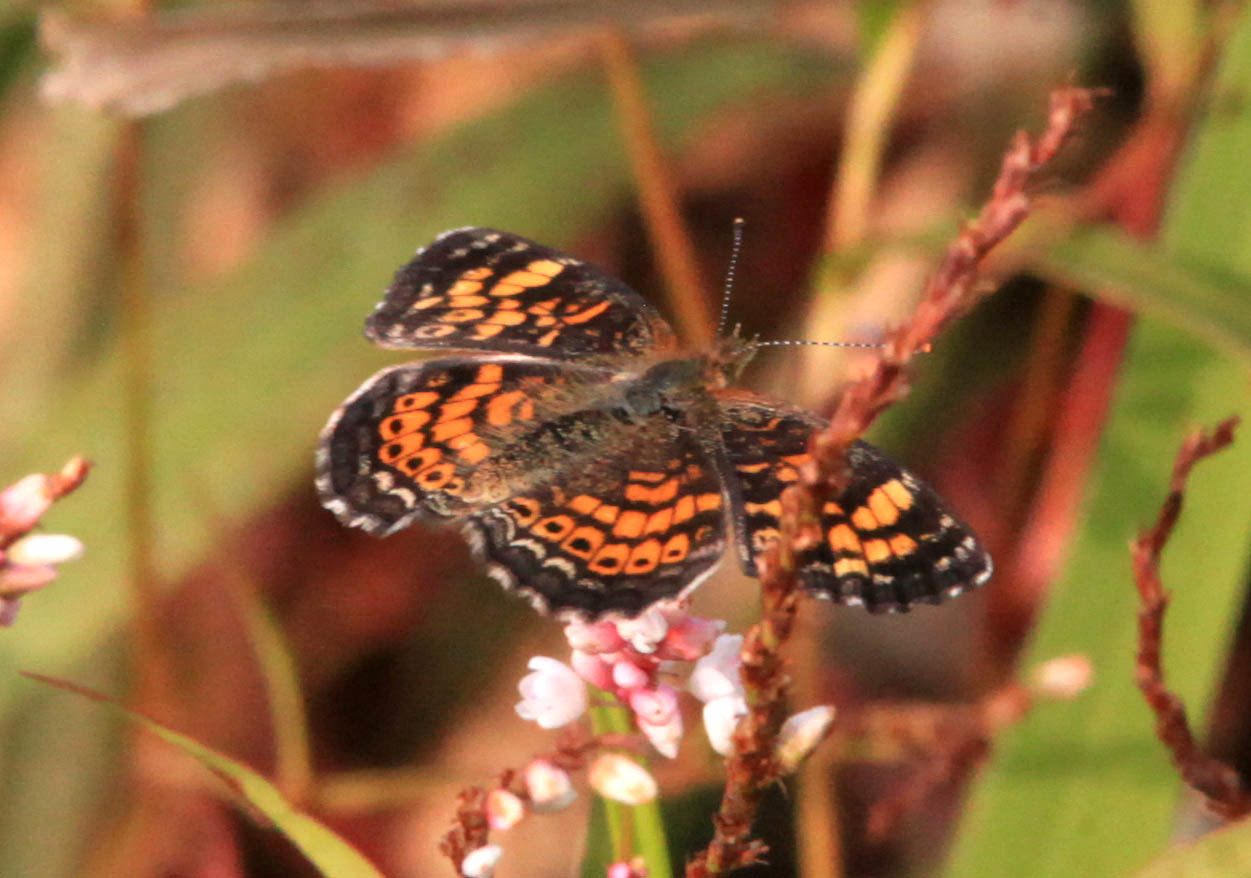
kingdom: Animalia
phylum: Arthropoda
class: Insecta
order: Lepidoptera
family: Nymphalidae
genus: Phyciodes
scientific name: Phyciodes tharos
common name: Pearl crescent
